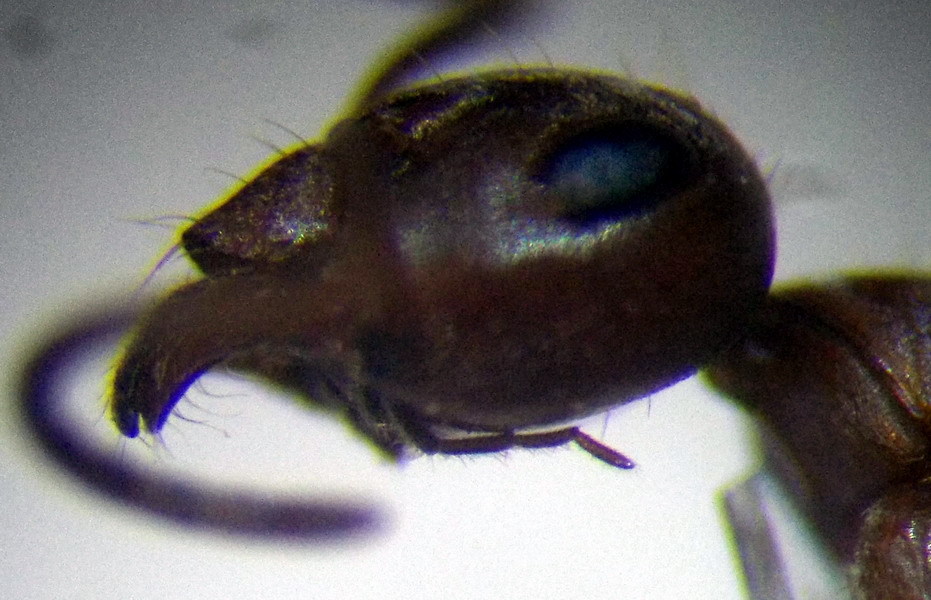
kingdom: Animalia
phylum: Arthropoda
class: Insecta
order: Hymenoptera
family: Formicidae
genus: Formica
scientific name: Formica subpilosa
